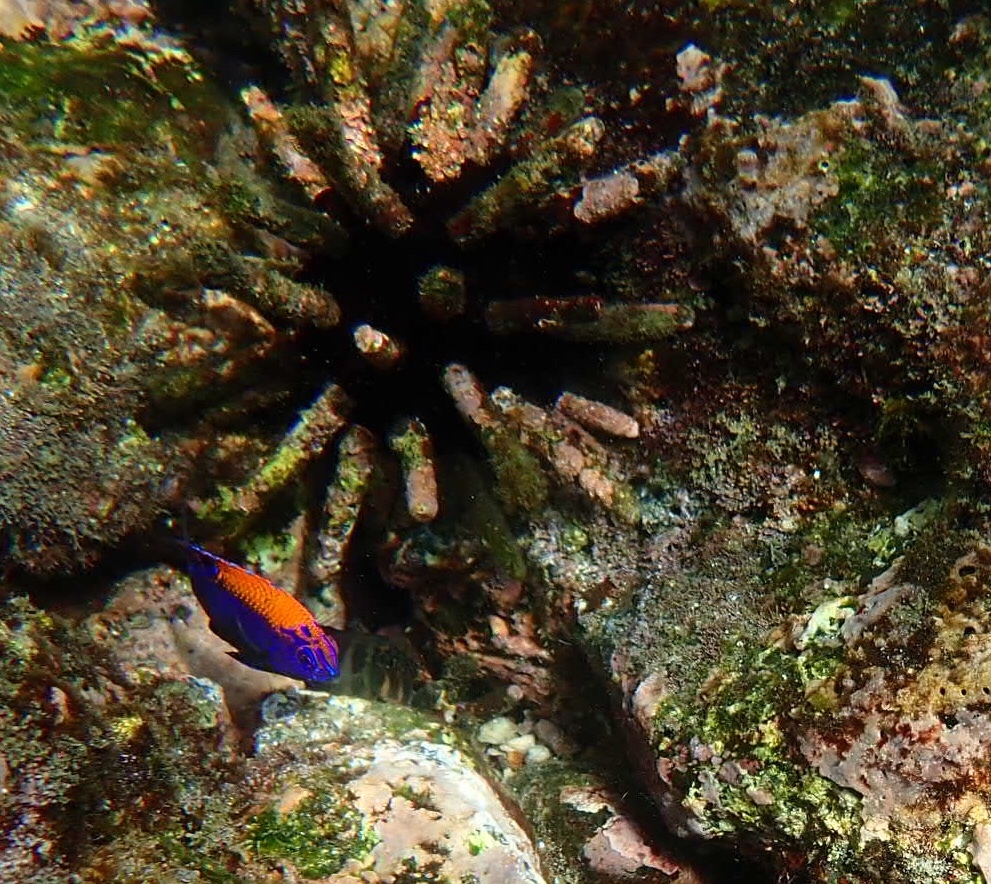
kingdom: Animalia
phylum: Chordata
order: Perciformes
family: Pomacentridae
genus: Stegastes
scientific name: Stegastes beebei
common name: Galapagos ringtail damselfish
